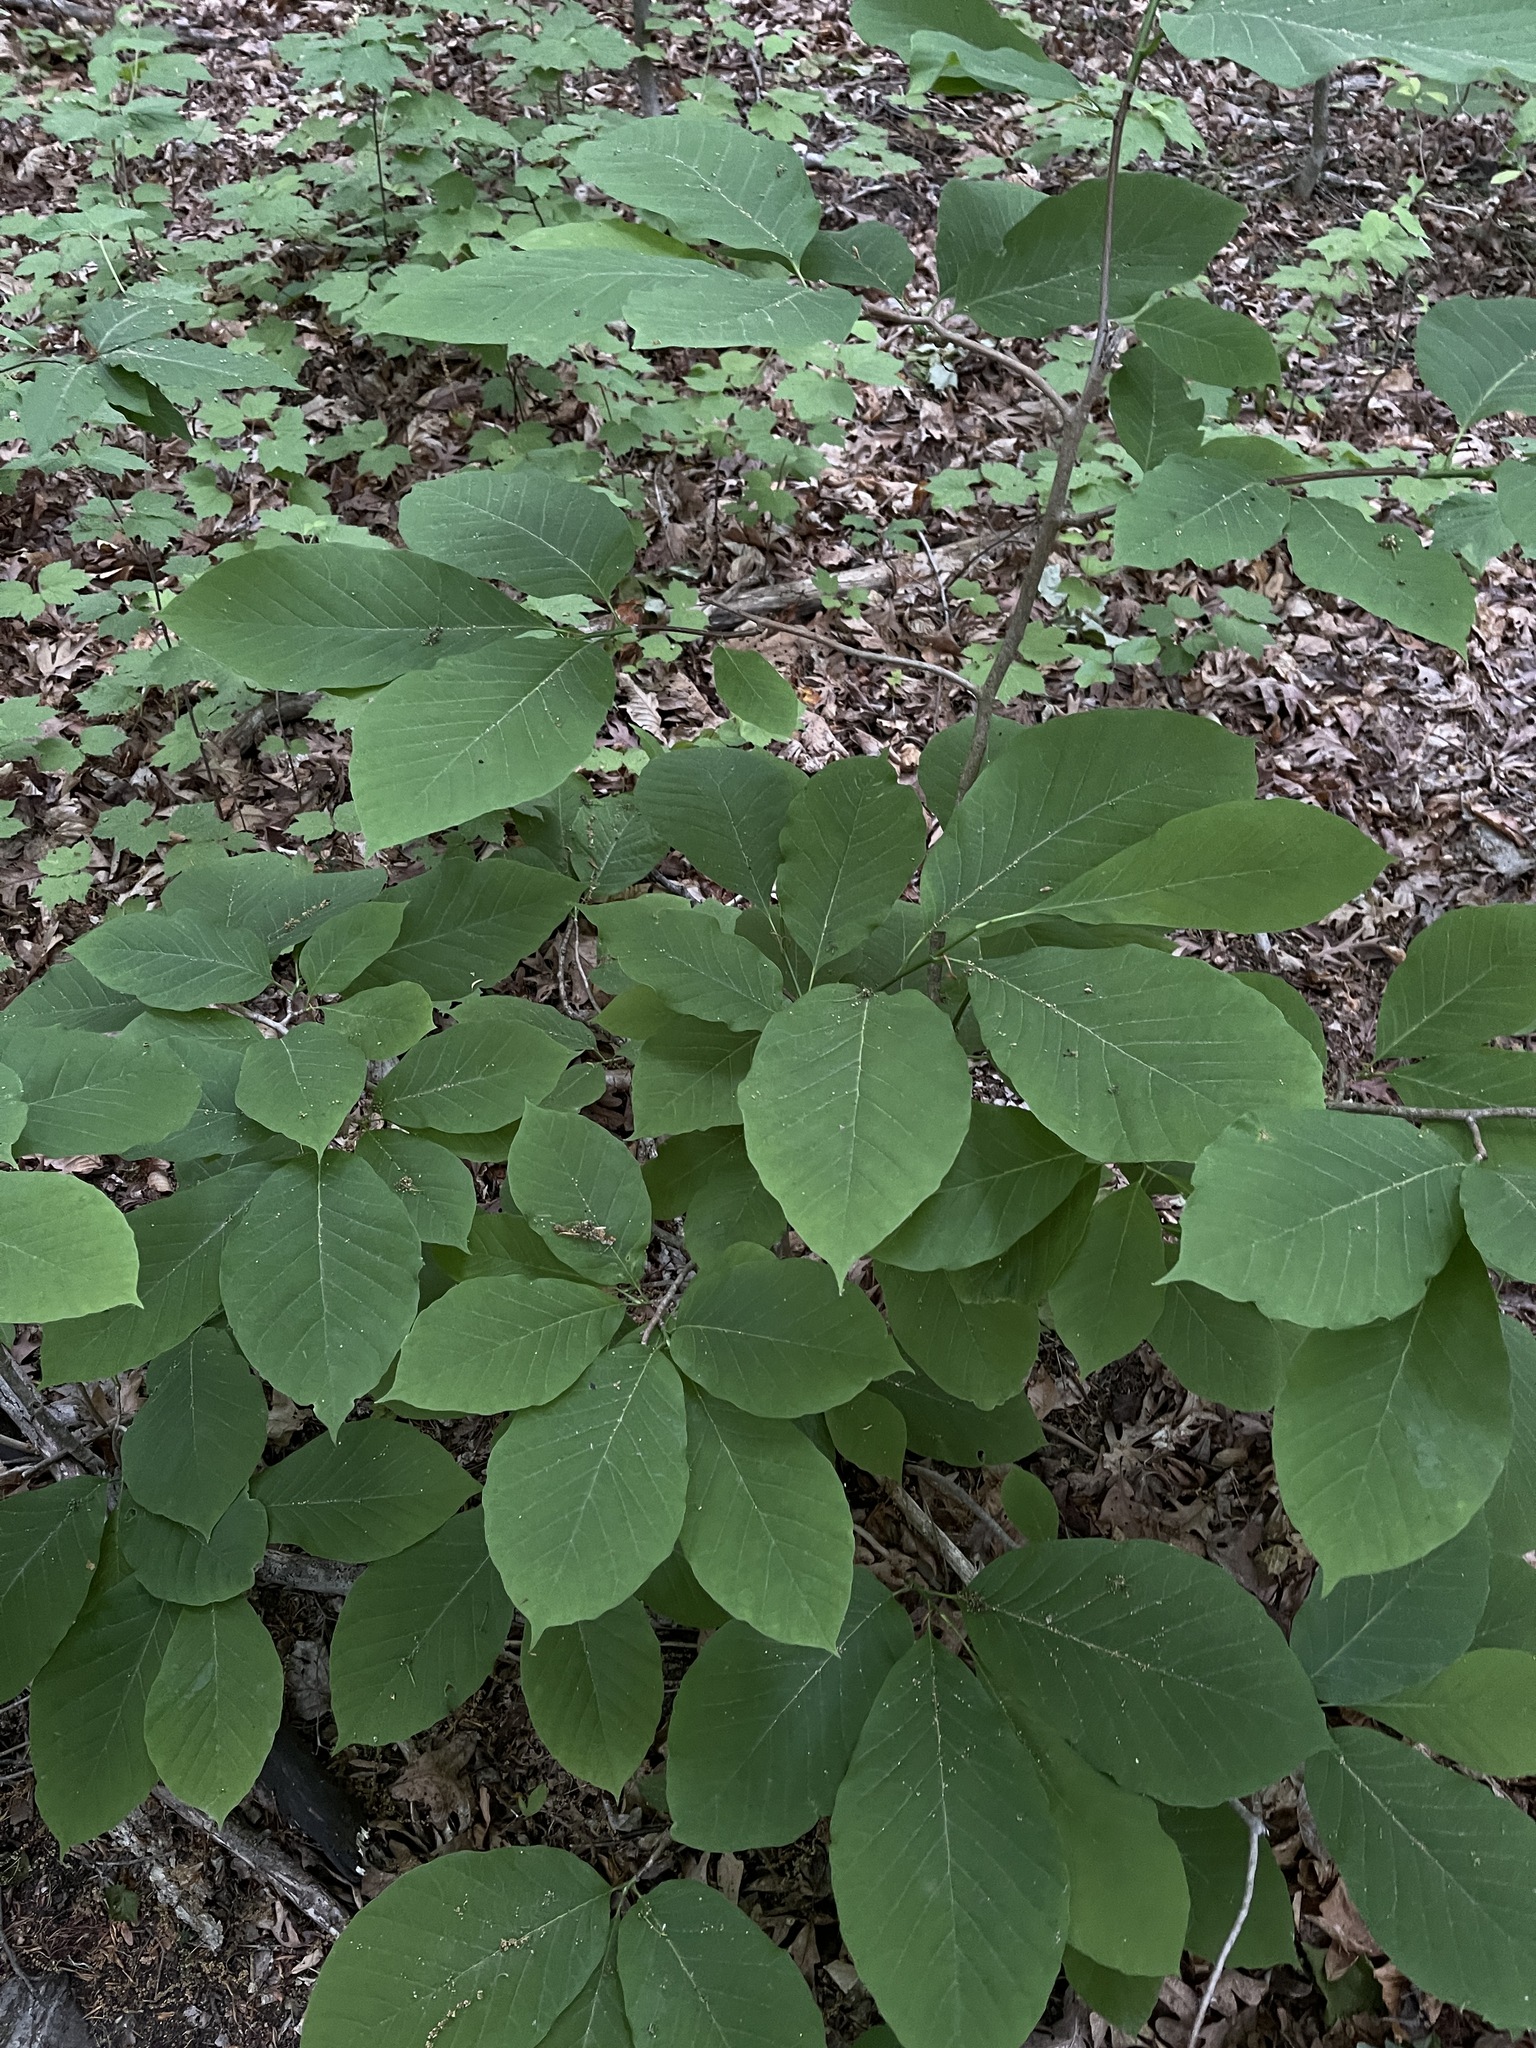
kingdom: Plantae
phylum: Tracheophyta
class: Magnoliopsida
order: Magnoliales
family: Magnoliaceae
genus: Magnolia
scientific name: Magnolia acuminata
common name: Cucumber magnolia
